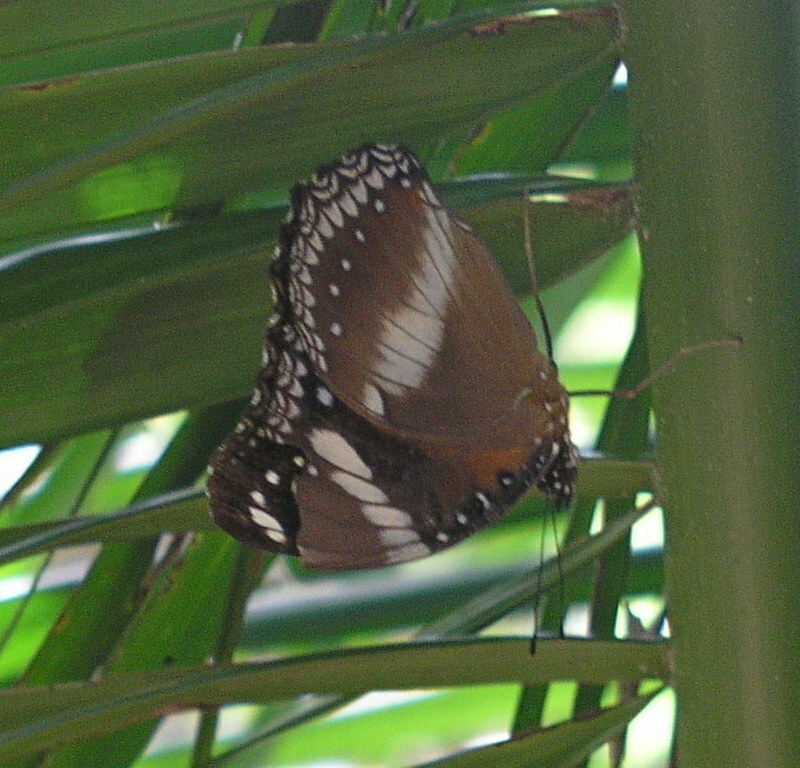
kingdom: Animalia
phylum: Arthropoda
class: Insecta
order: Lepidoptera
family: Nymphalidae
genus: Hypolimnas
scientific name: Hypolimnas bolina
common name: Great eggfly
